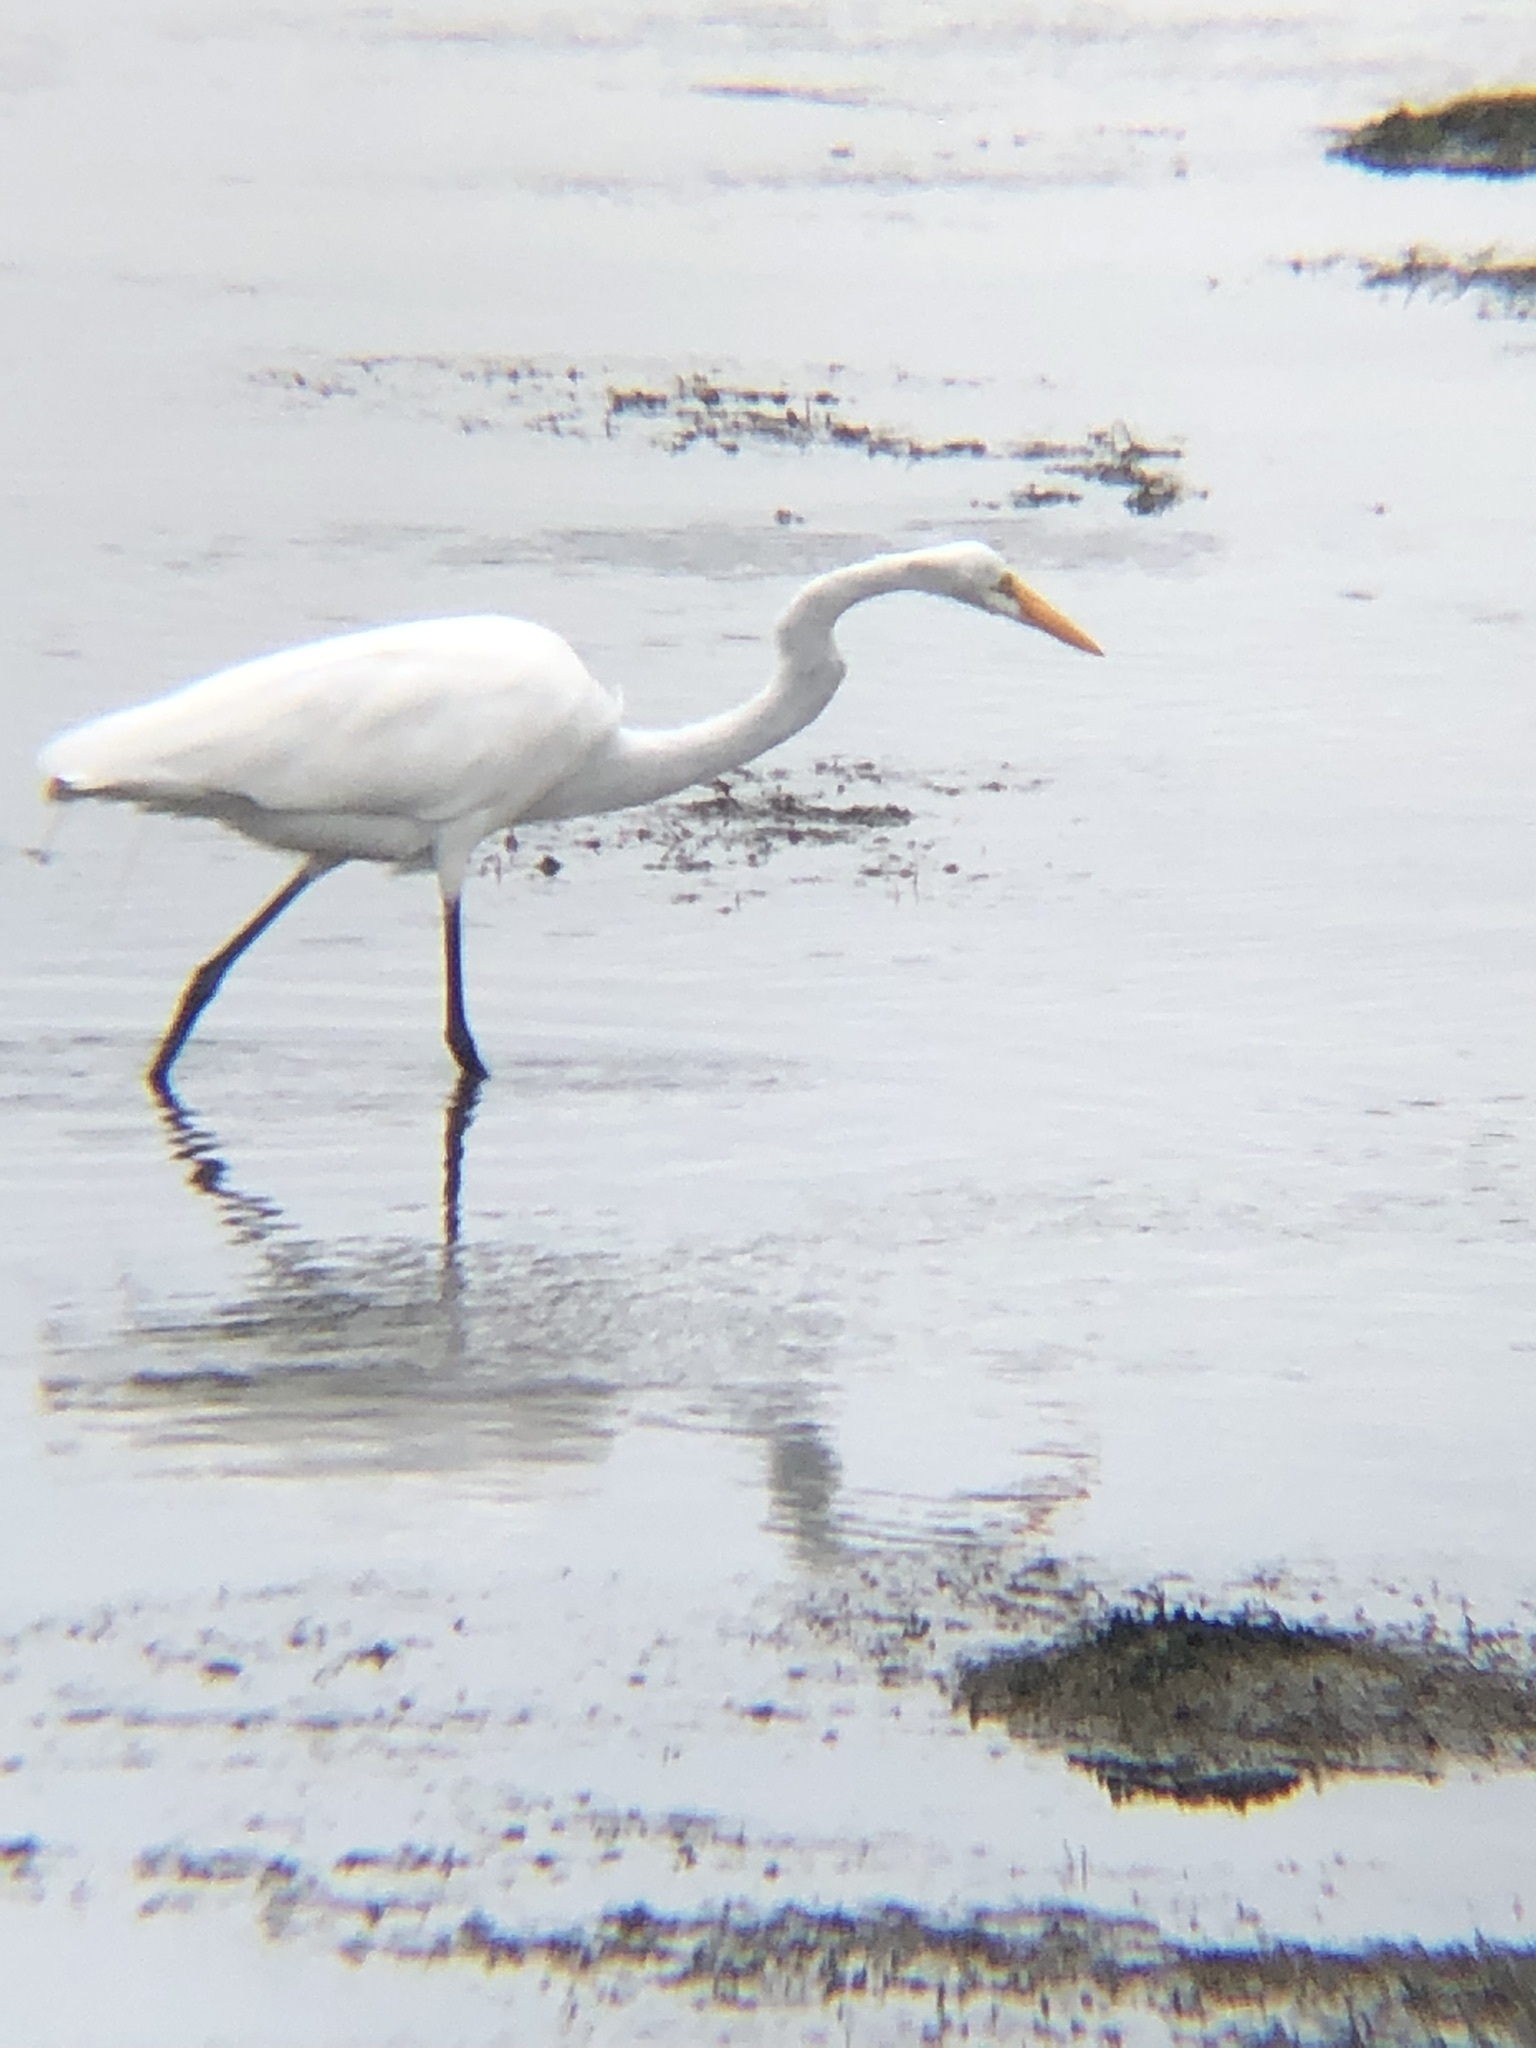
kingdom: Animalia
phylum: Chordata
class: Aves
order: Pelecaniformes
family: Ardeidae
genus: Ardea
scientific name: Ardea alba
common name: Great egret
